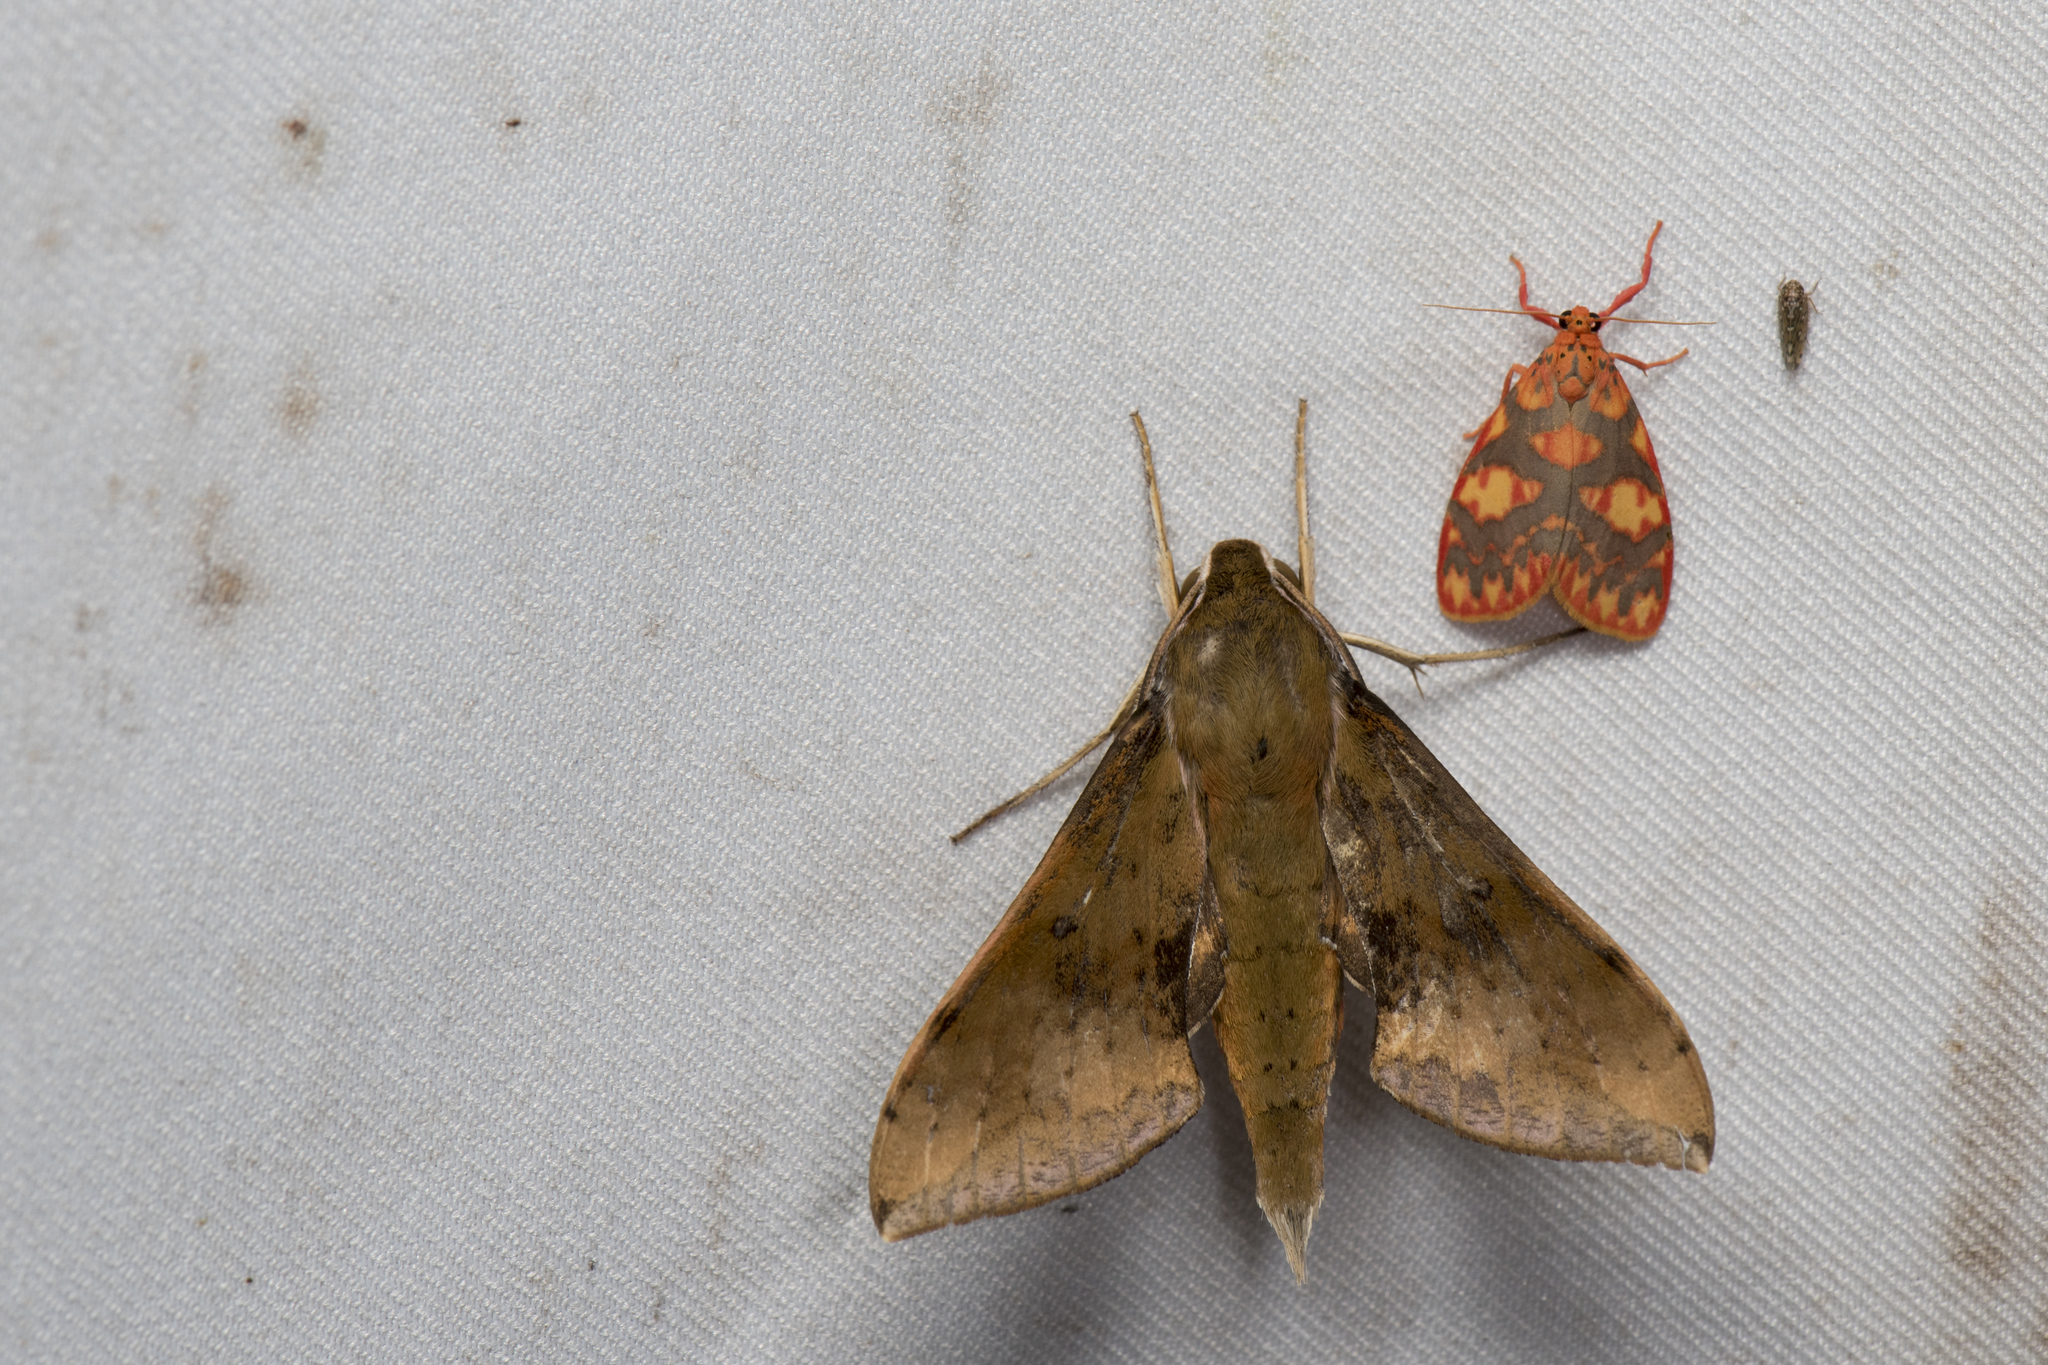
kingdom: Animalia
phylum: Arthropoda
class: Insecta
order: Lepidoptera
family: Sphingidae
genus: Rhagastis
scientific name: Rhagastis castor
